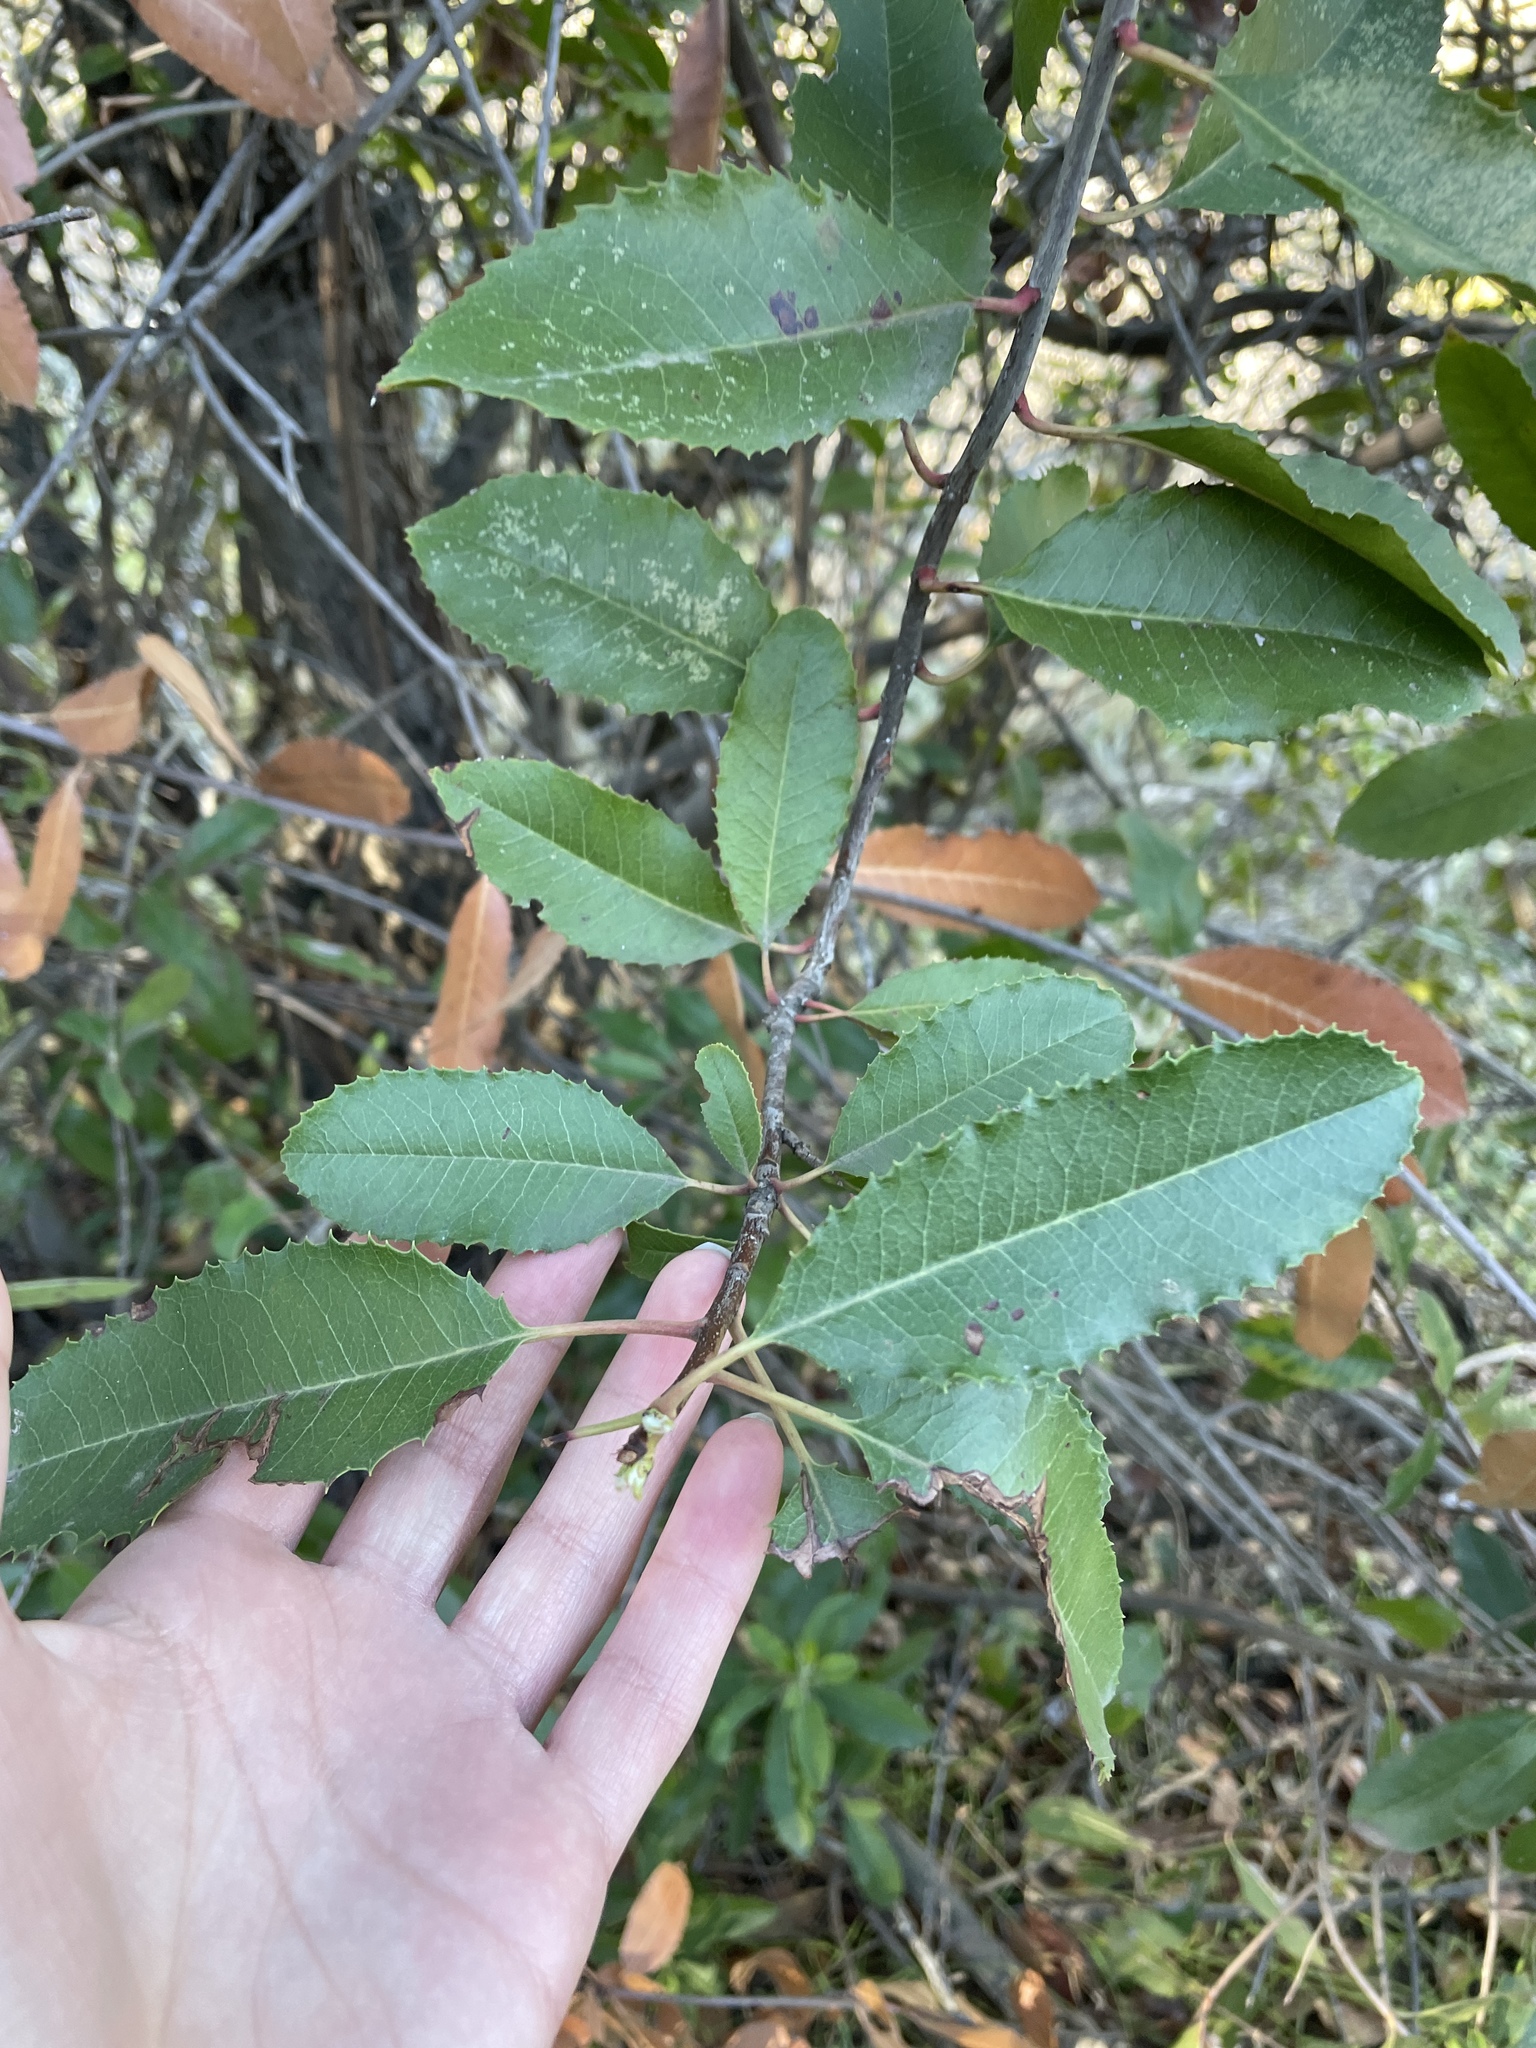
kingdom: Plantae
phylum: Tracheophyta
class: Magnoliopsida
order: Rosales
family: Rosaceae
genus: Heteromeles
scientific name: Heteromeles arbutifolia
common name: California-holly
